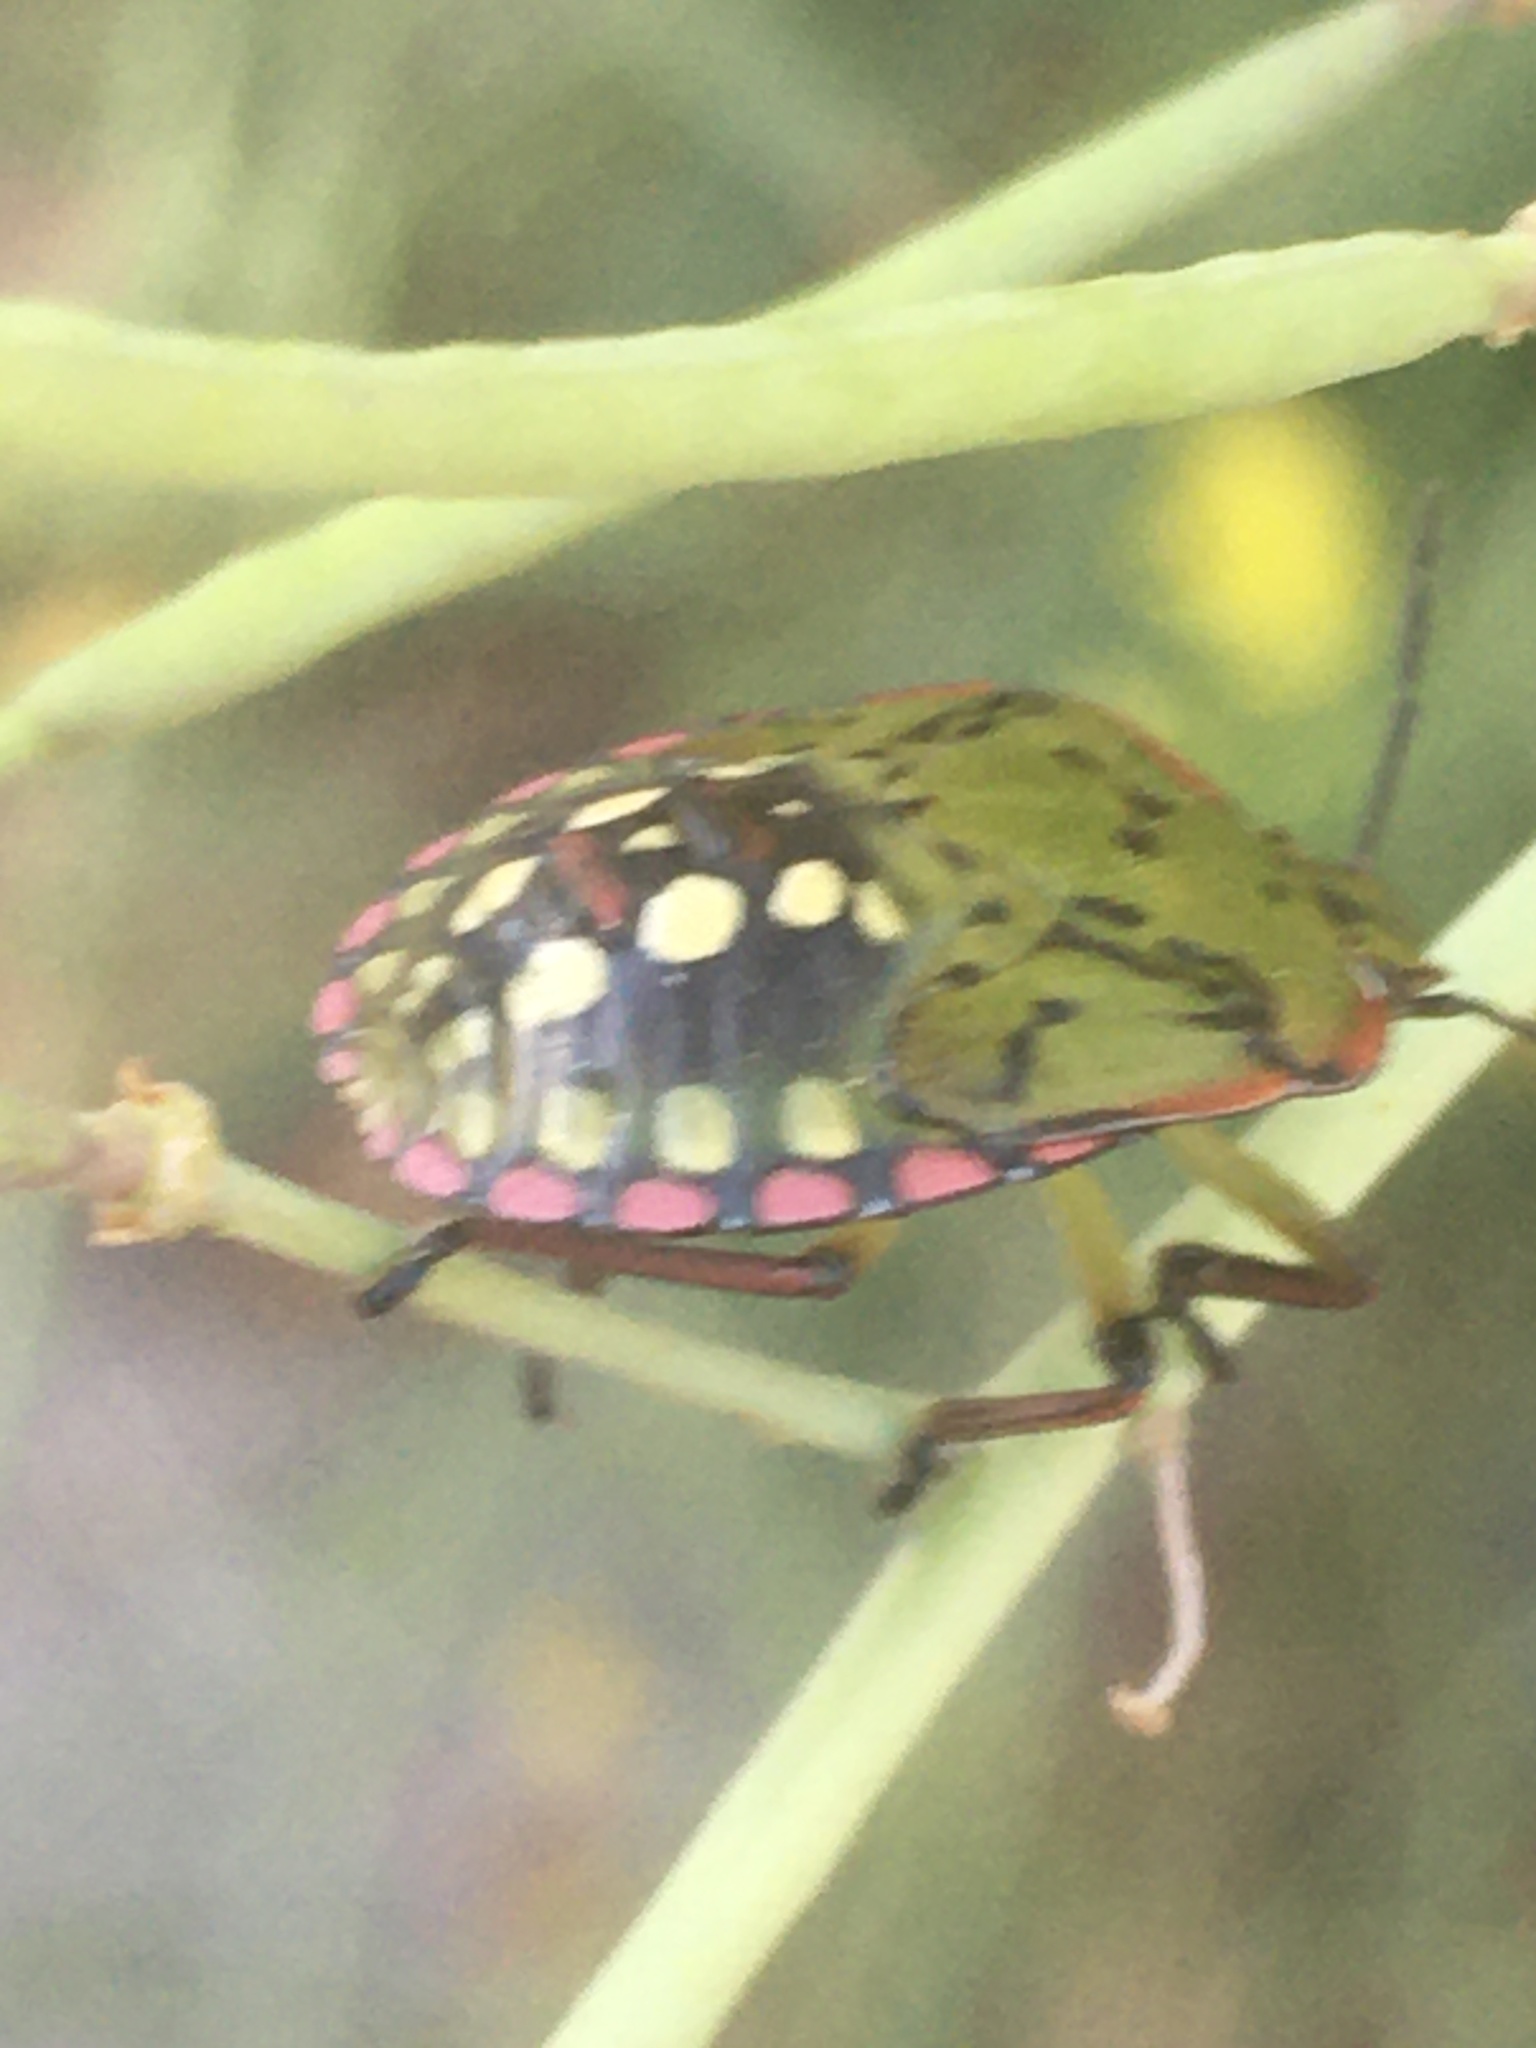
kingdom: Animalia
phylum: Arthropoda
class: Insecta
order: Hemiptera
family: Pentatomidae
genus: Nezara
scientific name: Nezara viridula
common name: Southern green stink bug
